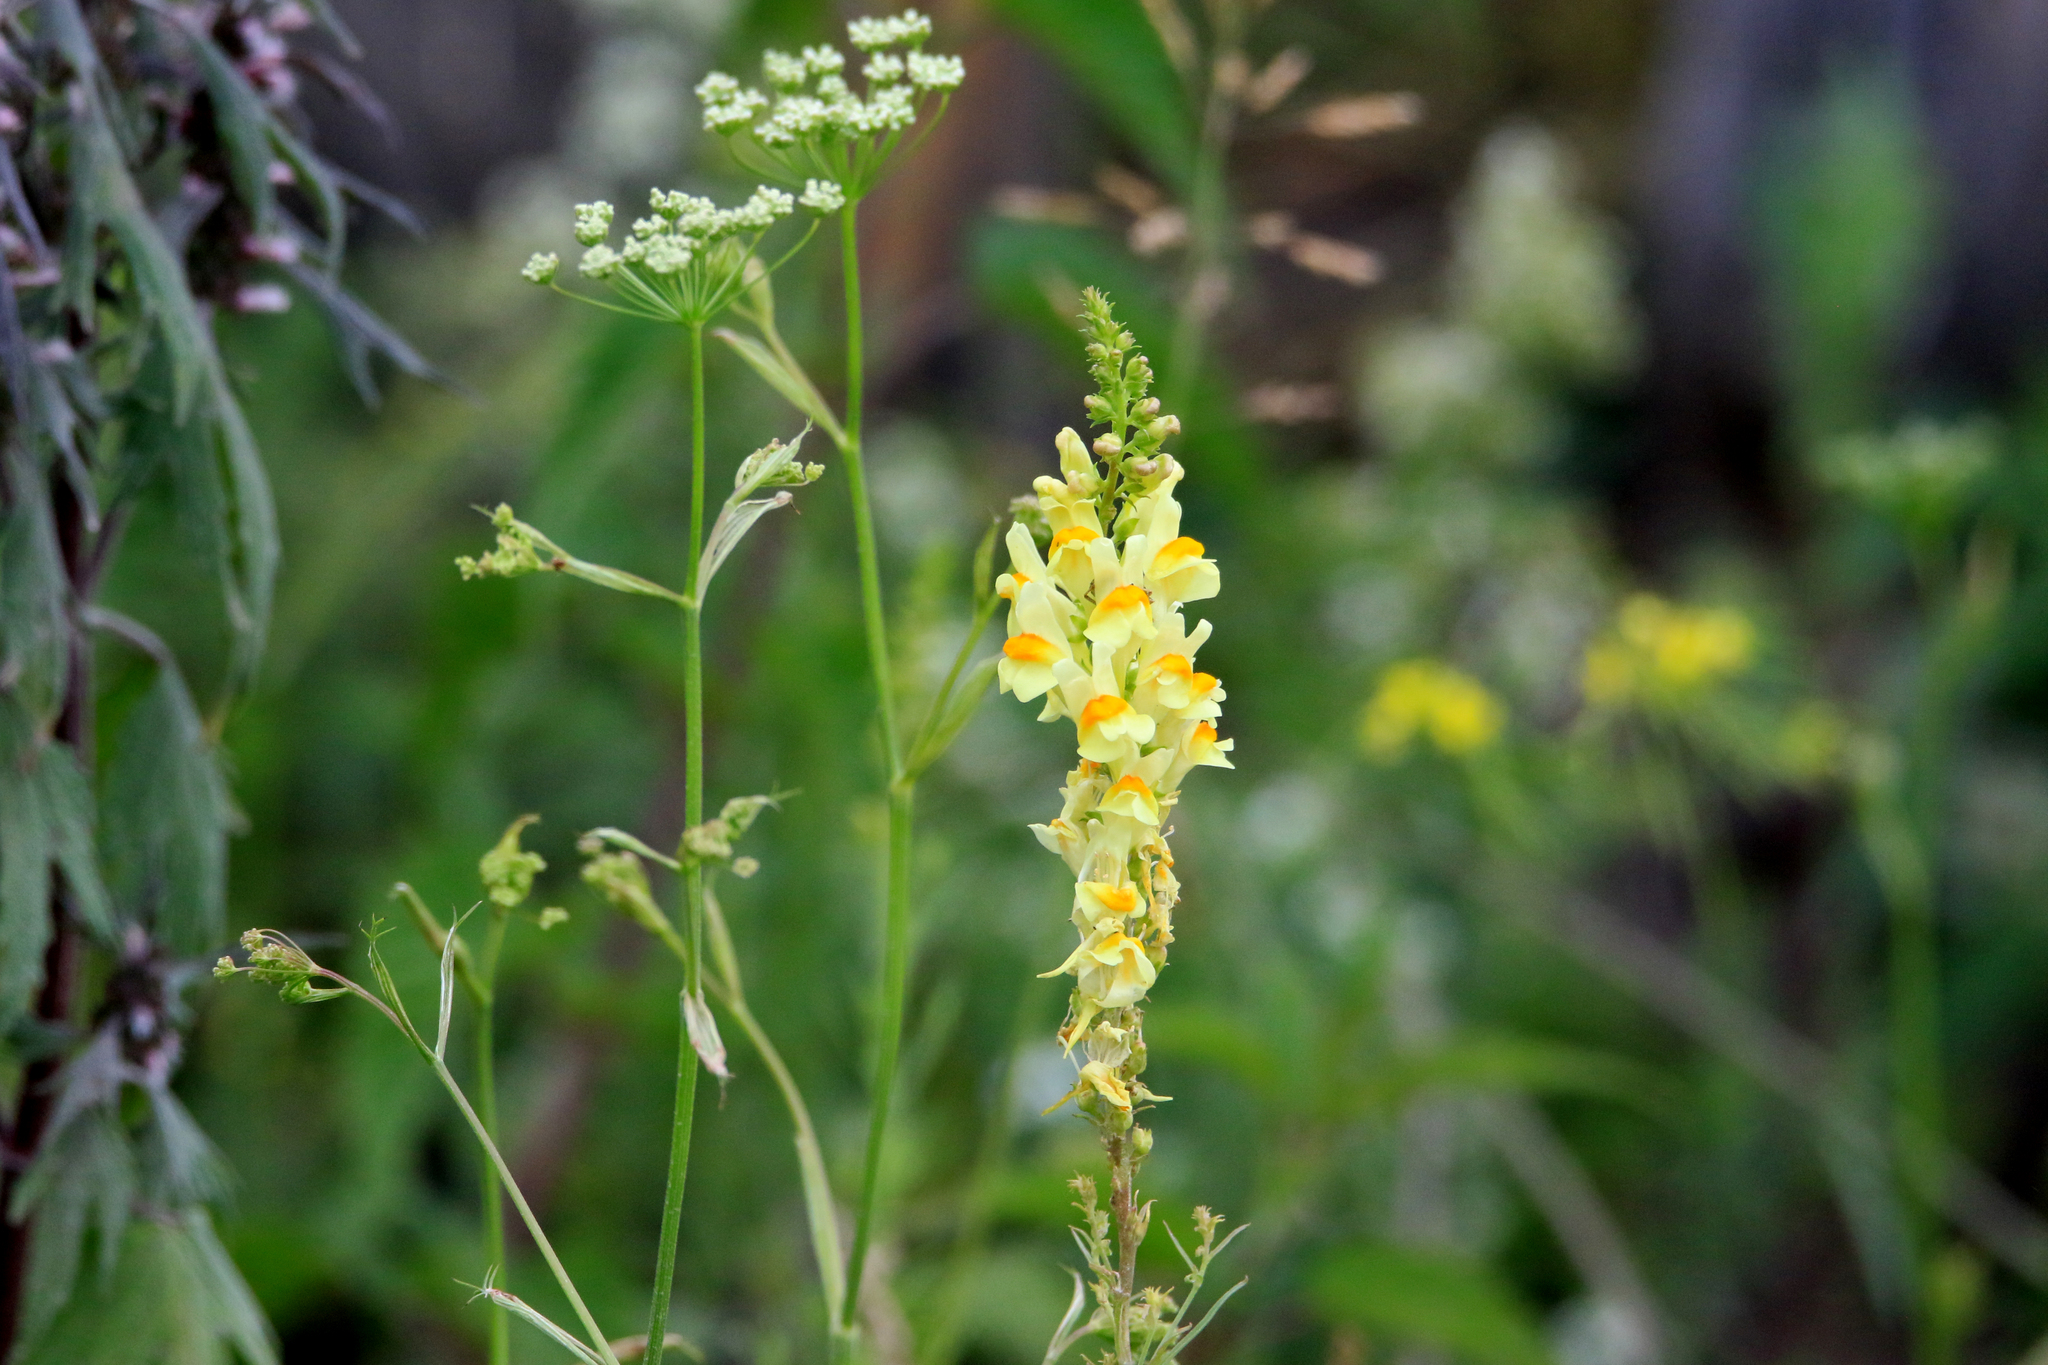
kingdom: Plantae
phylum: Tracheophyta
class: Magnoliopsida
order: Lamiales
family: Plantaginaceae
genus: Linaria
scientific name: Linaria vulgaris
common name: Butter and eggs
